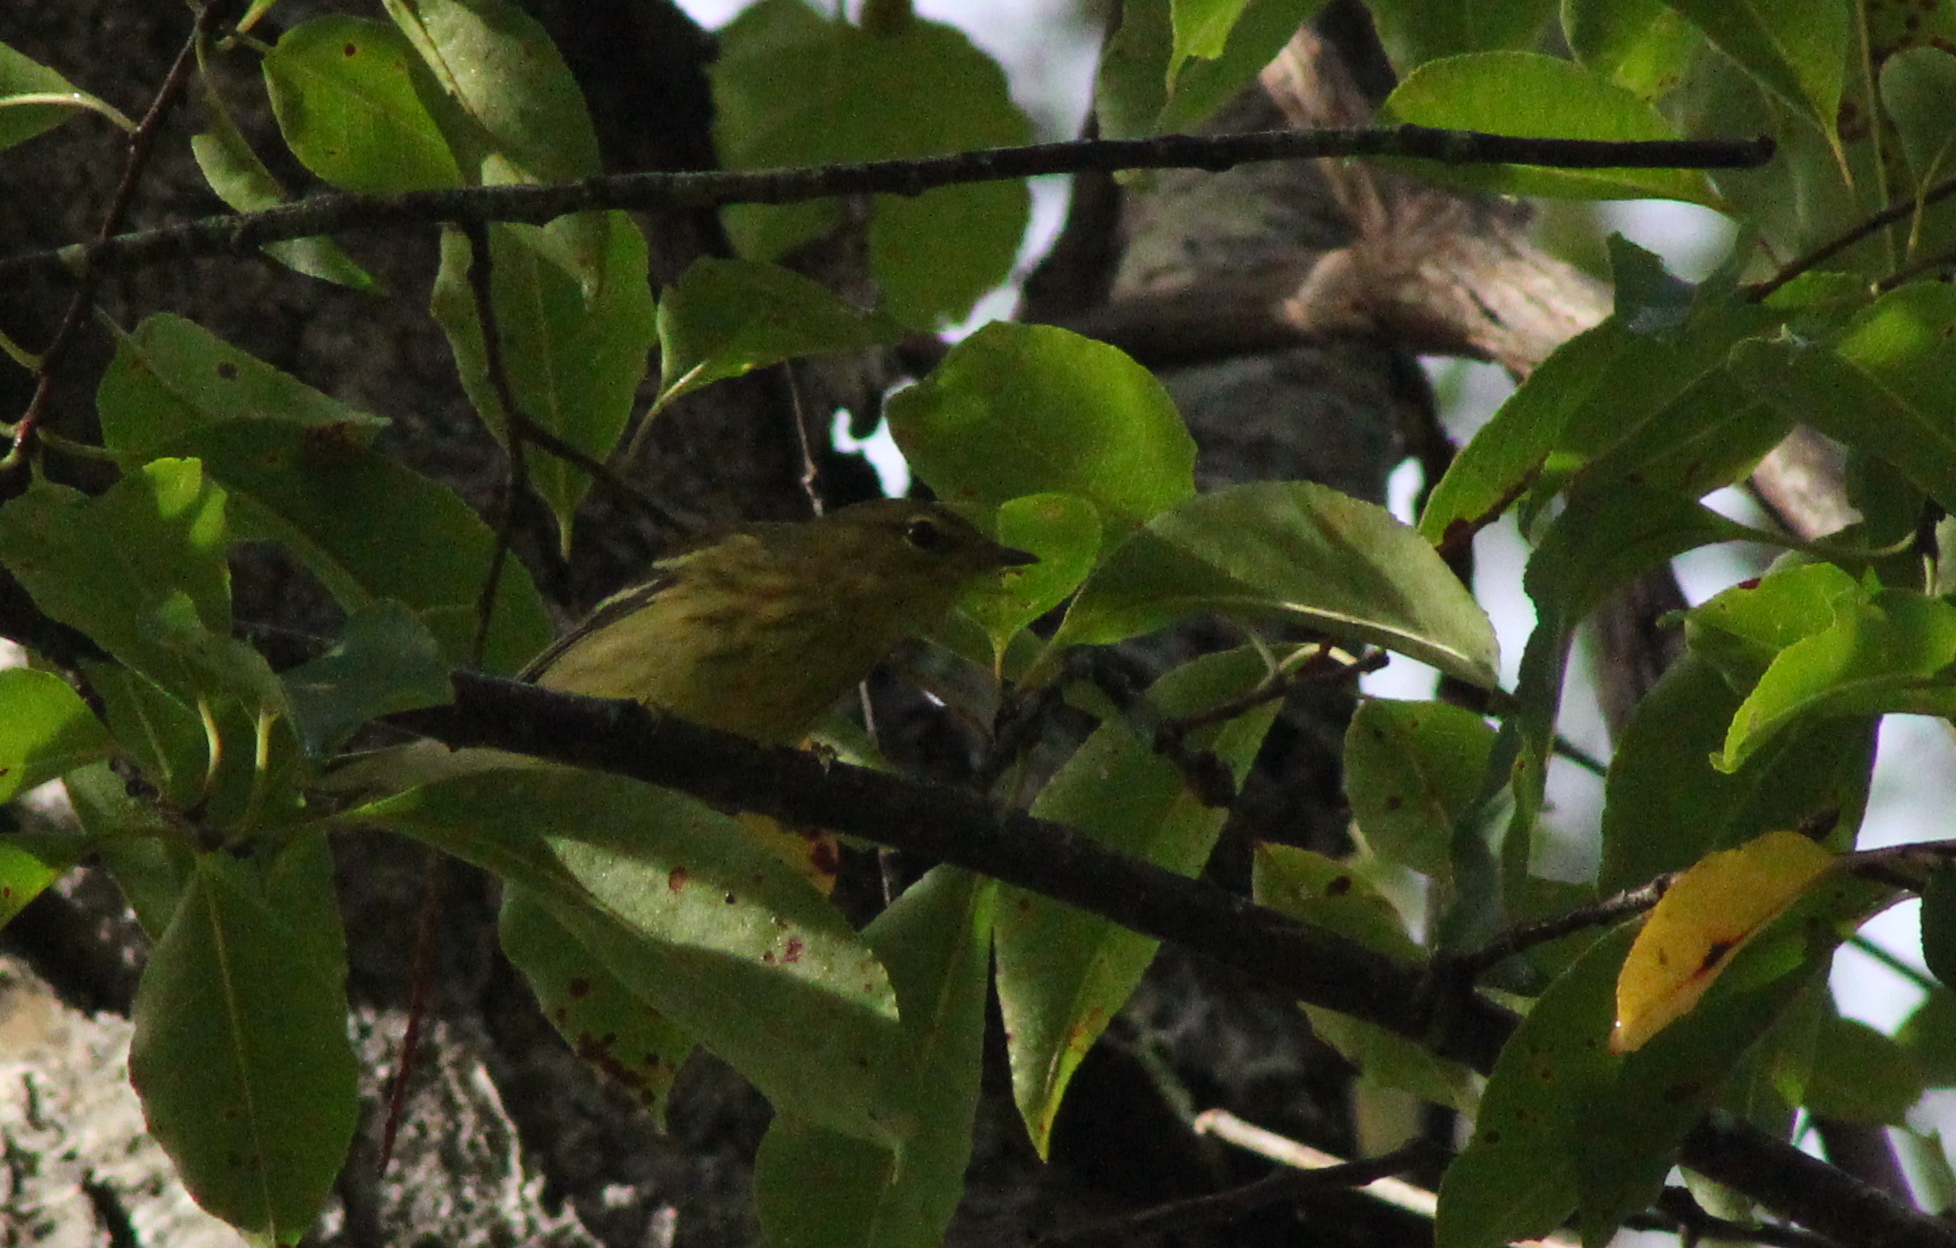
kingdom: Animalia
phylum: Chordata
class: Aves
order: Passeriformes
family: Parulidae
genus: Setophaga
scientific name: Setophaga striata
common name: Blackpoll warbler
